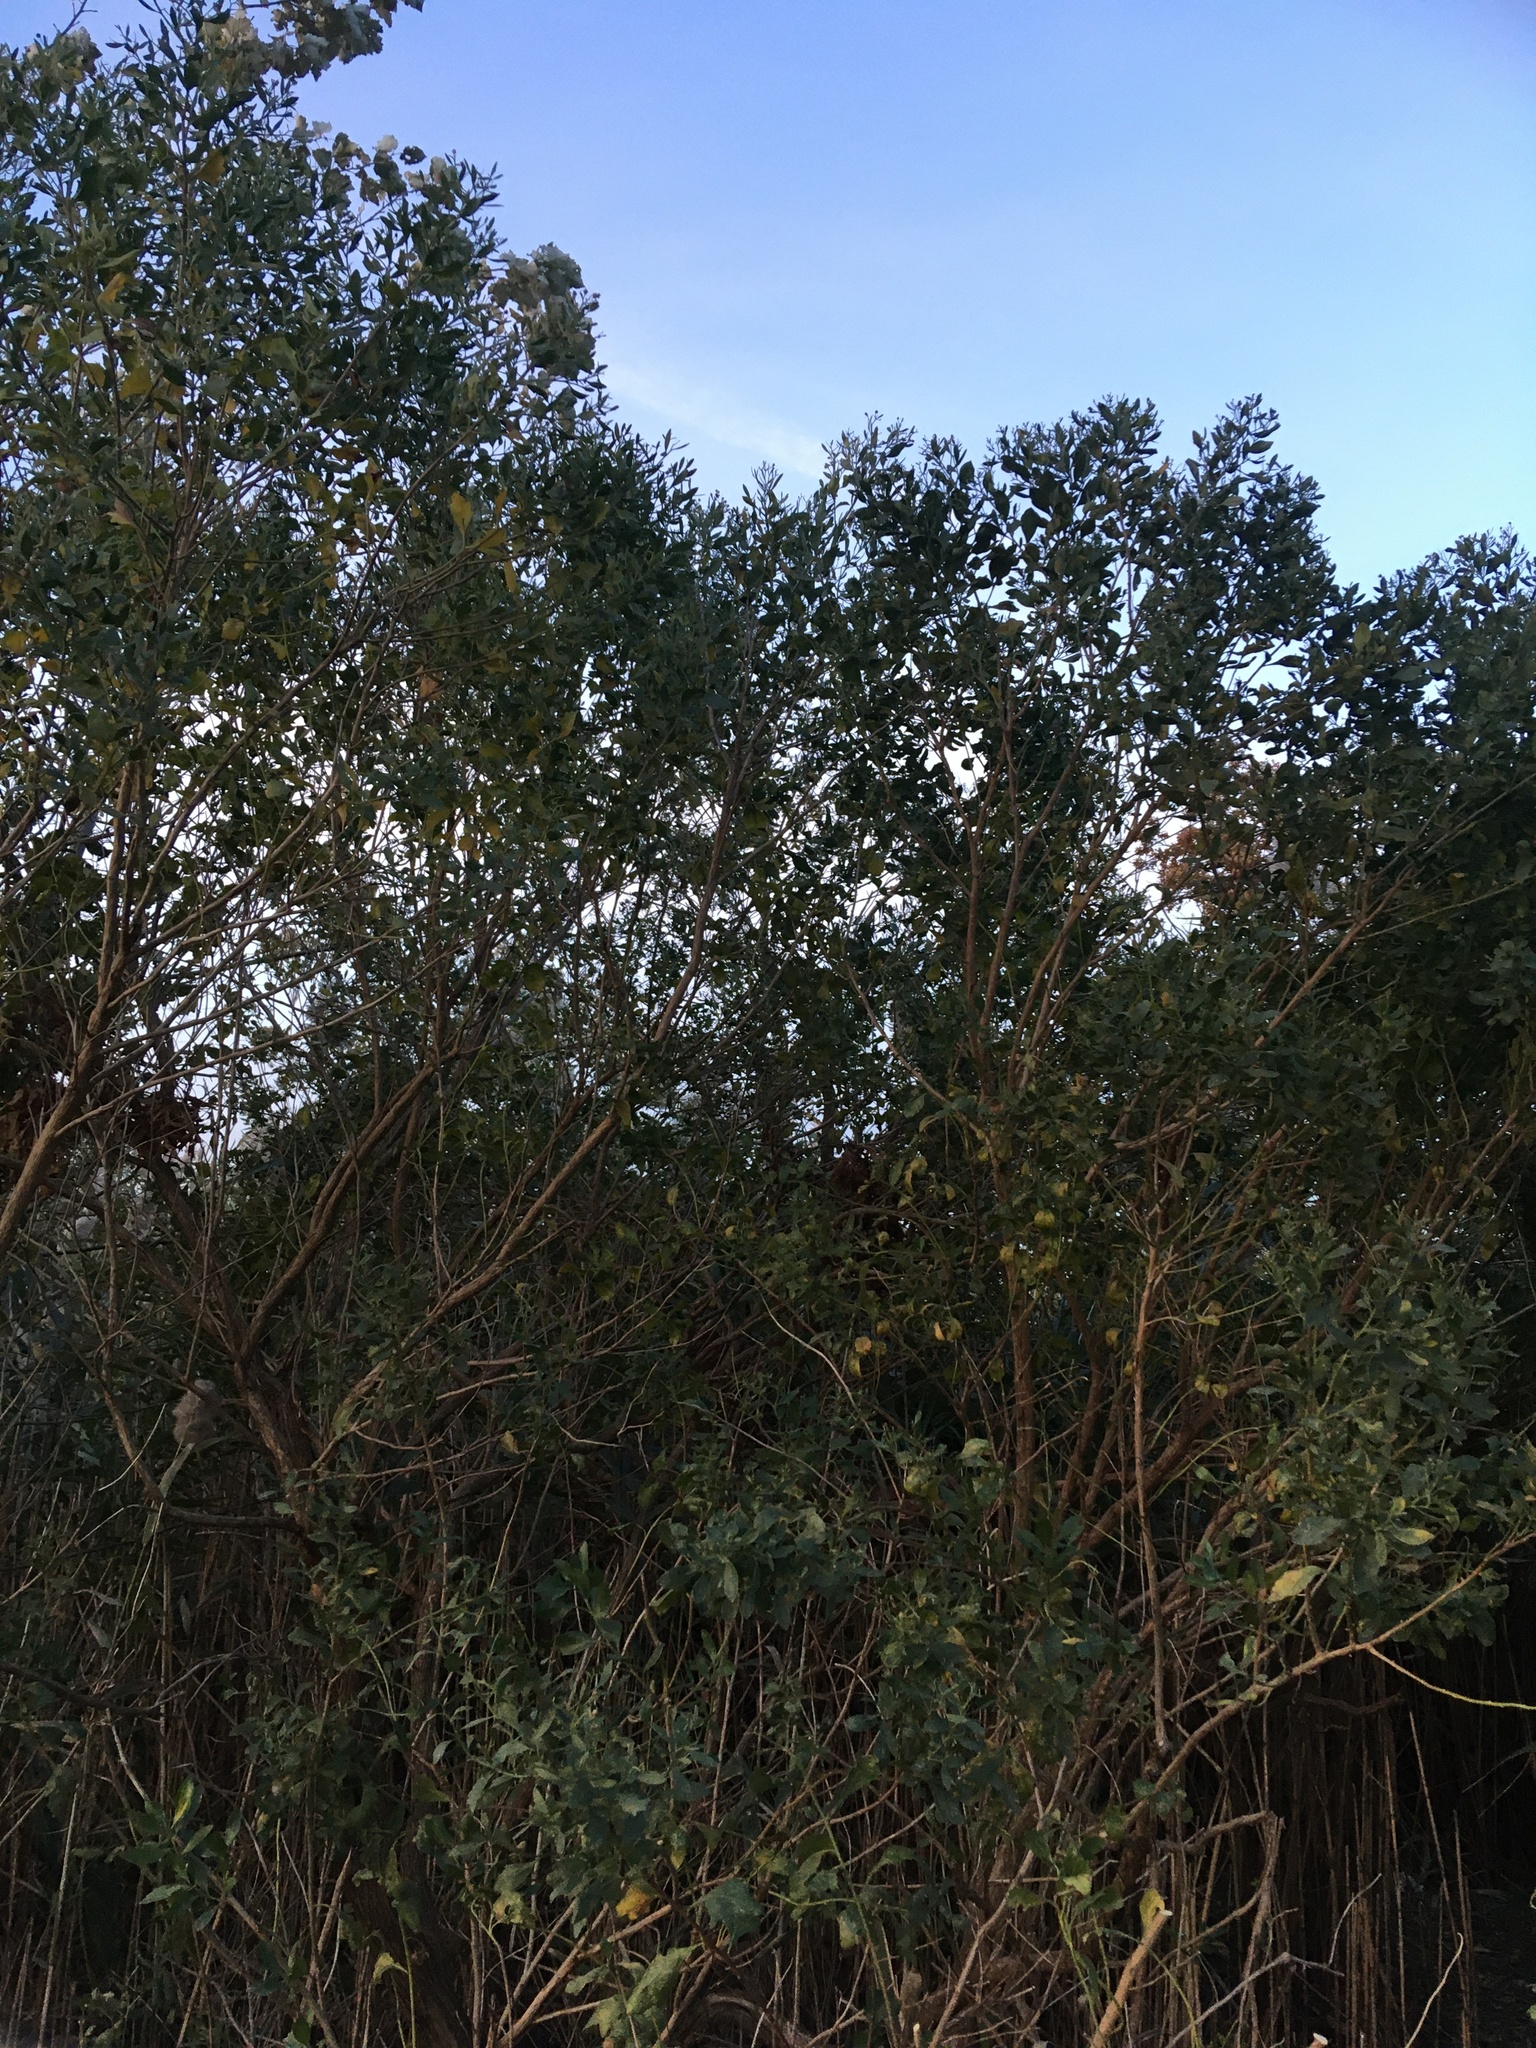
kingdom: Plantae
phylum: Tracheophyta
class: Magnoliopsida
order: Asterales
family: Asteraceae
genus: Baccharis
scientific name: Baccharis halimifolia
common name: Eastern baccharis
